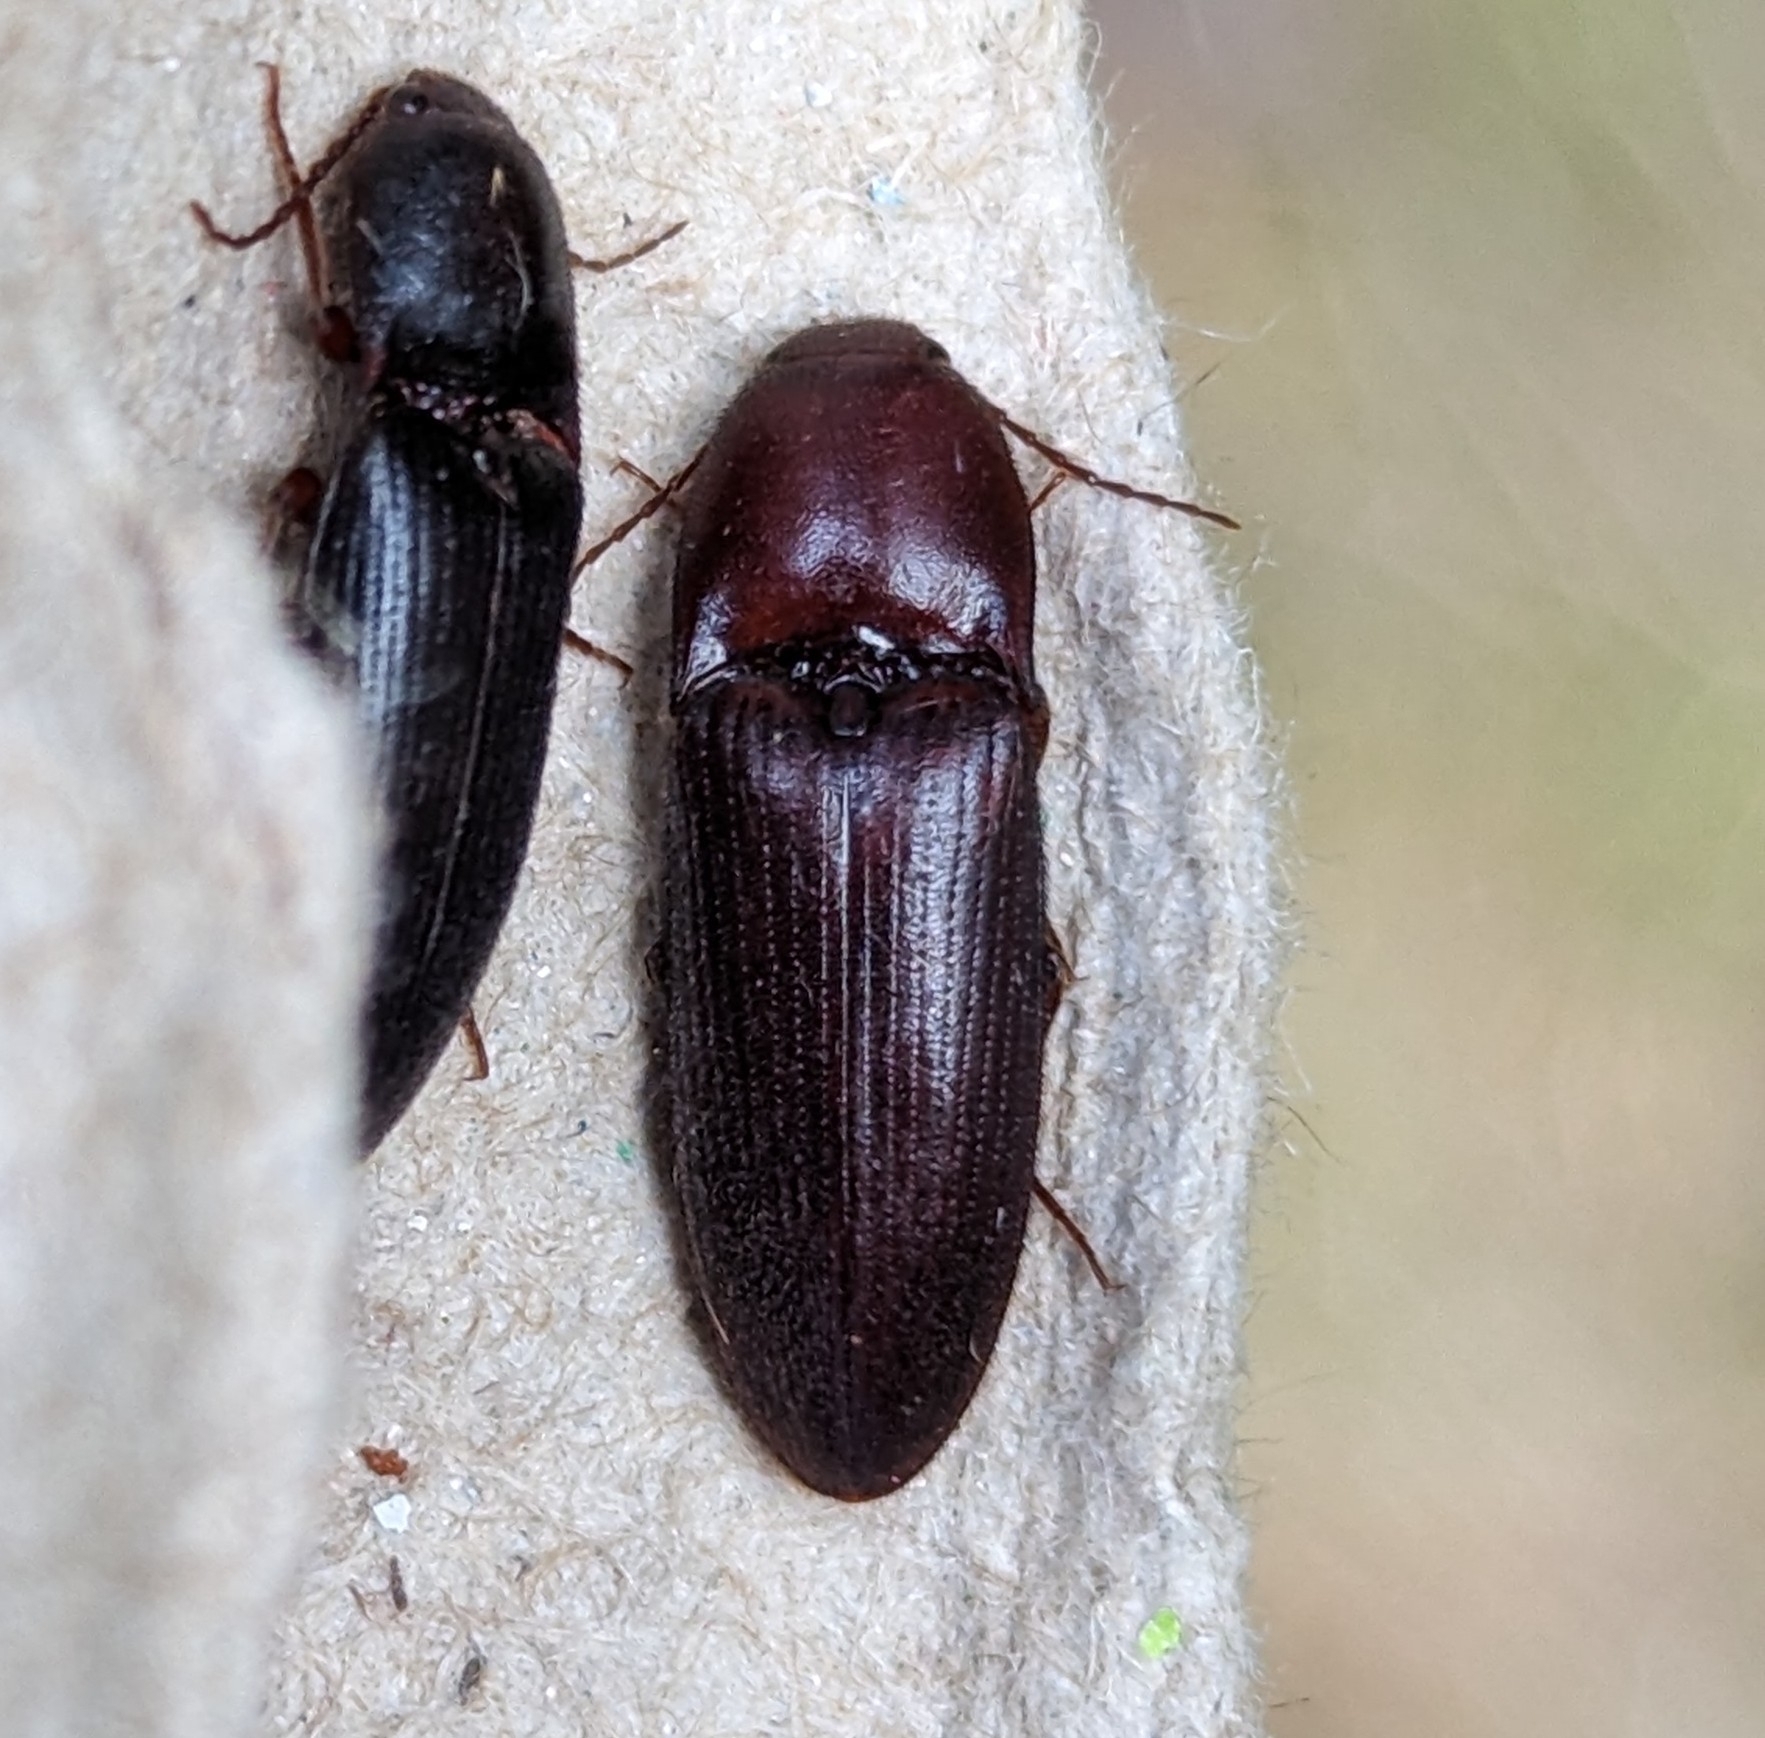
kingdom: Animalia
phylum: Arthropoda
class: Insecta
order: Coleoptera
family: Elateridae
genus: Ampedus
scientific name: Ampedus rhodopus
